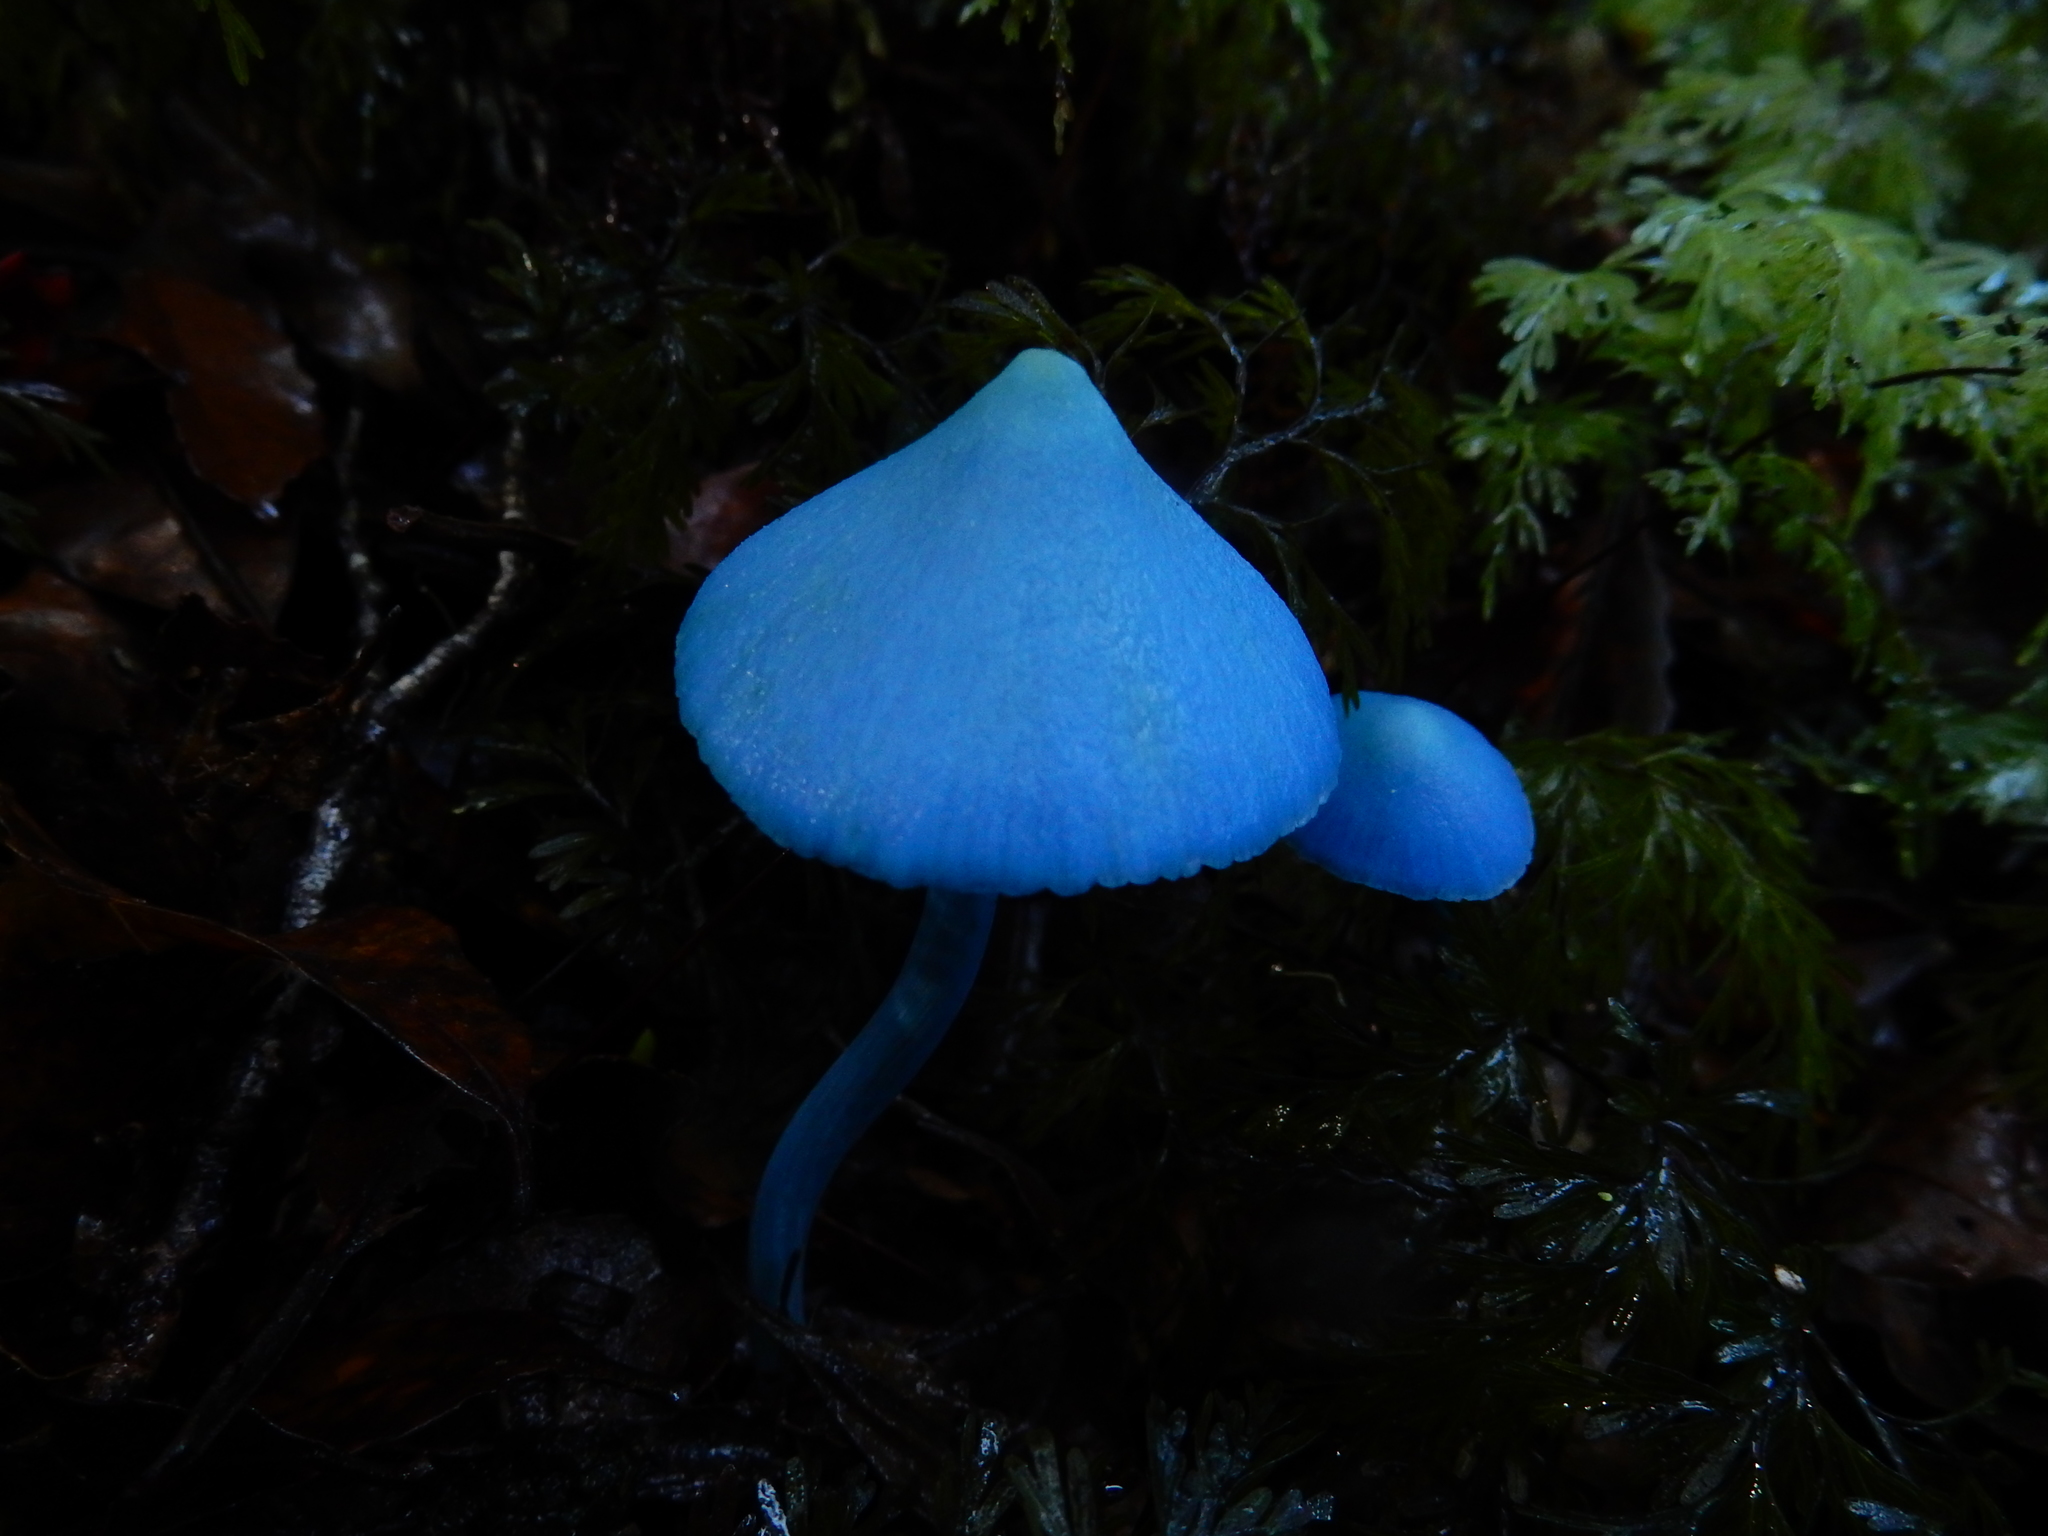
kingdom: Fungi
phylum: Basidiomycota
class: Agaricomycetes
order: Agaricales
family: Entolomataceae
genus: Entoloma
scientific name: Entoloma hochstetteri
